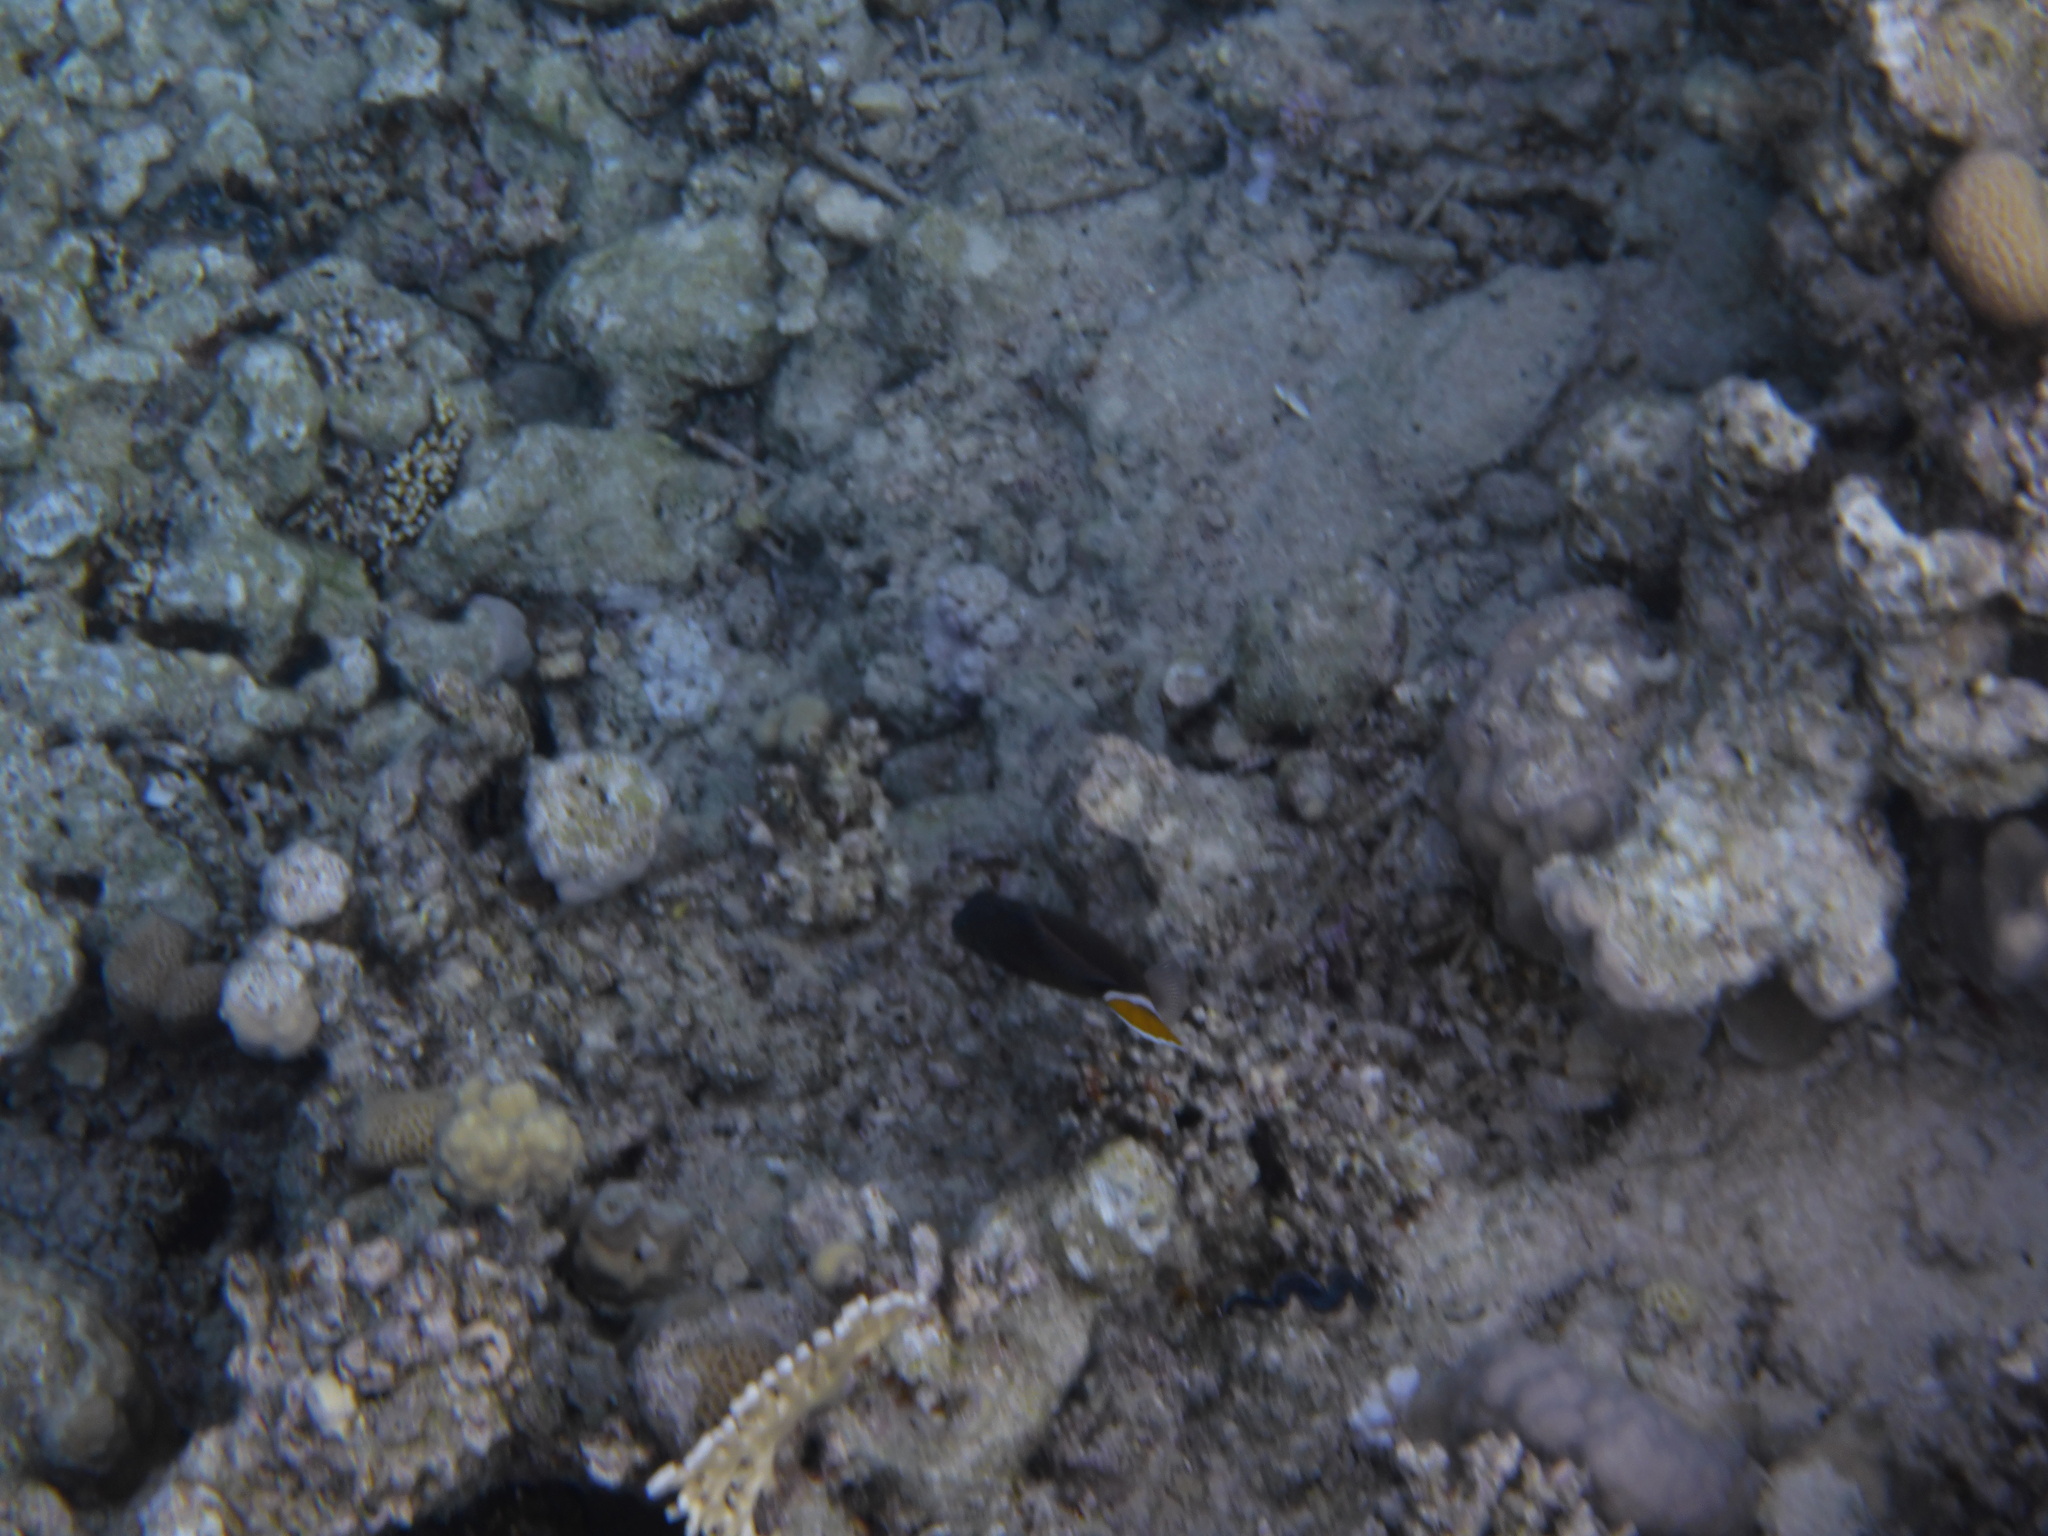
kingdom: Animalia
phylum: Chordata
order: Tetraodontiformes
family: Balistidae
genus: Sufflamen
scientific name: Sufflamen albicaudatum
